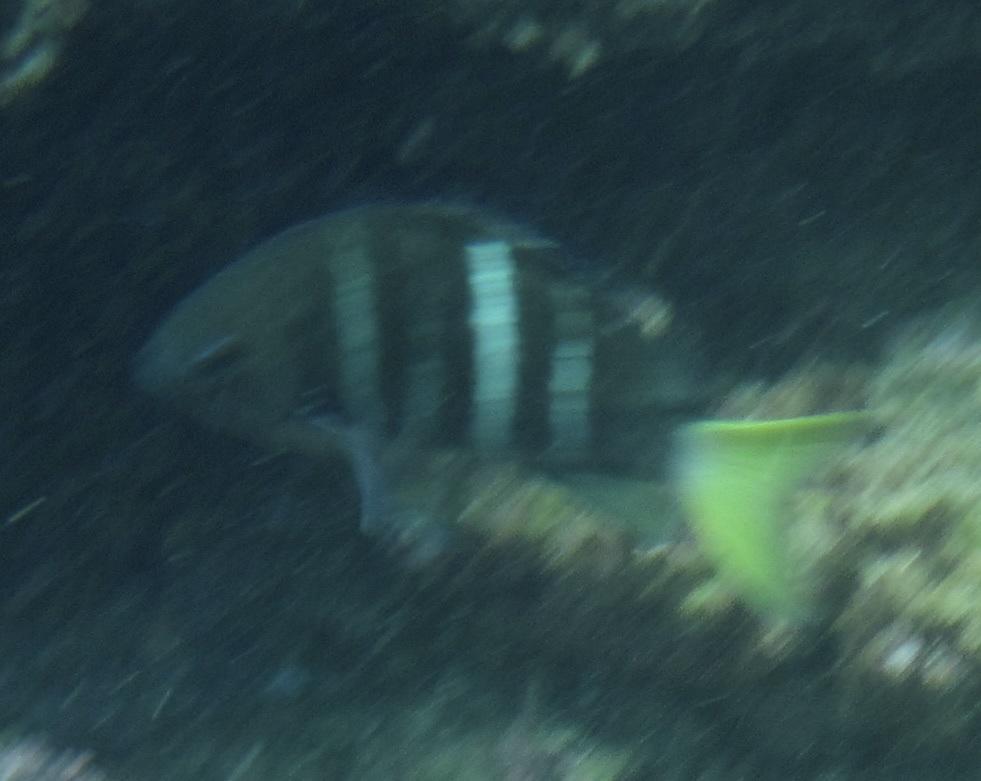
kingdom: Animalia
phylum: Chordata
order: Perciformes
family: Pomacentridae
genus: Abudefduf
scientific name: Abudefduf notatus
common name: Yellow-tail sergeant
